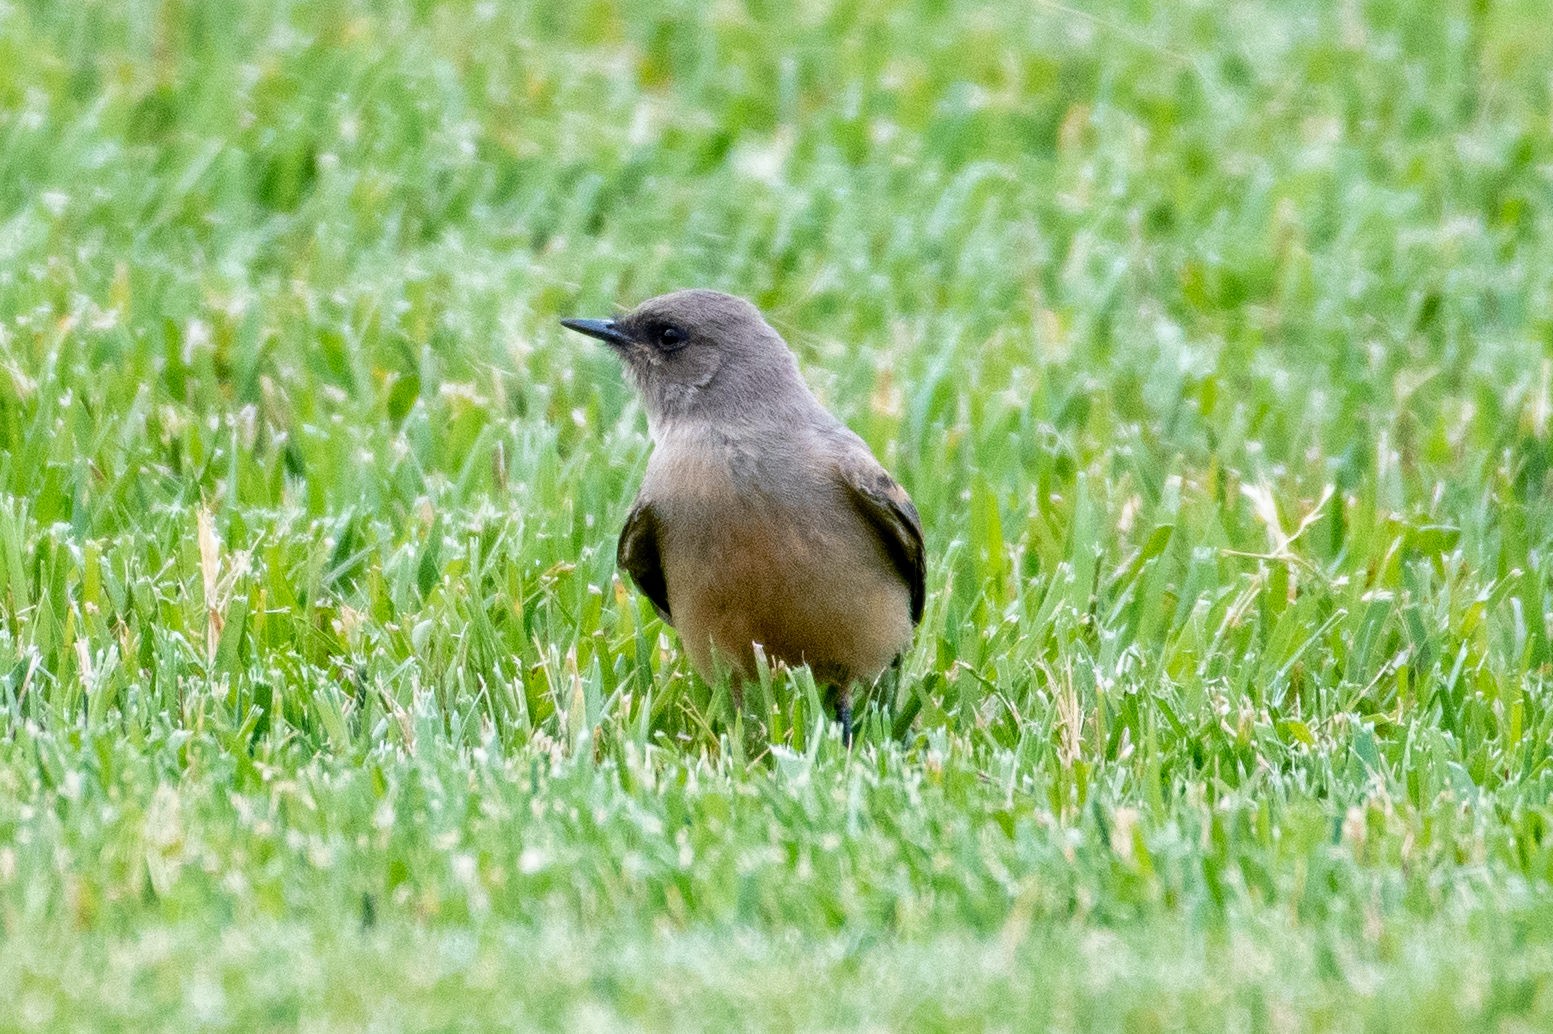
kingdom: Animalia
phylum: Chordata
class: Aves
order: Passeriformes
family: Tyrannidae
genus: Sayornis
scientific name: Sayornis saya
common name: Say's phoebe
